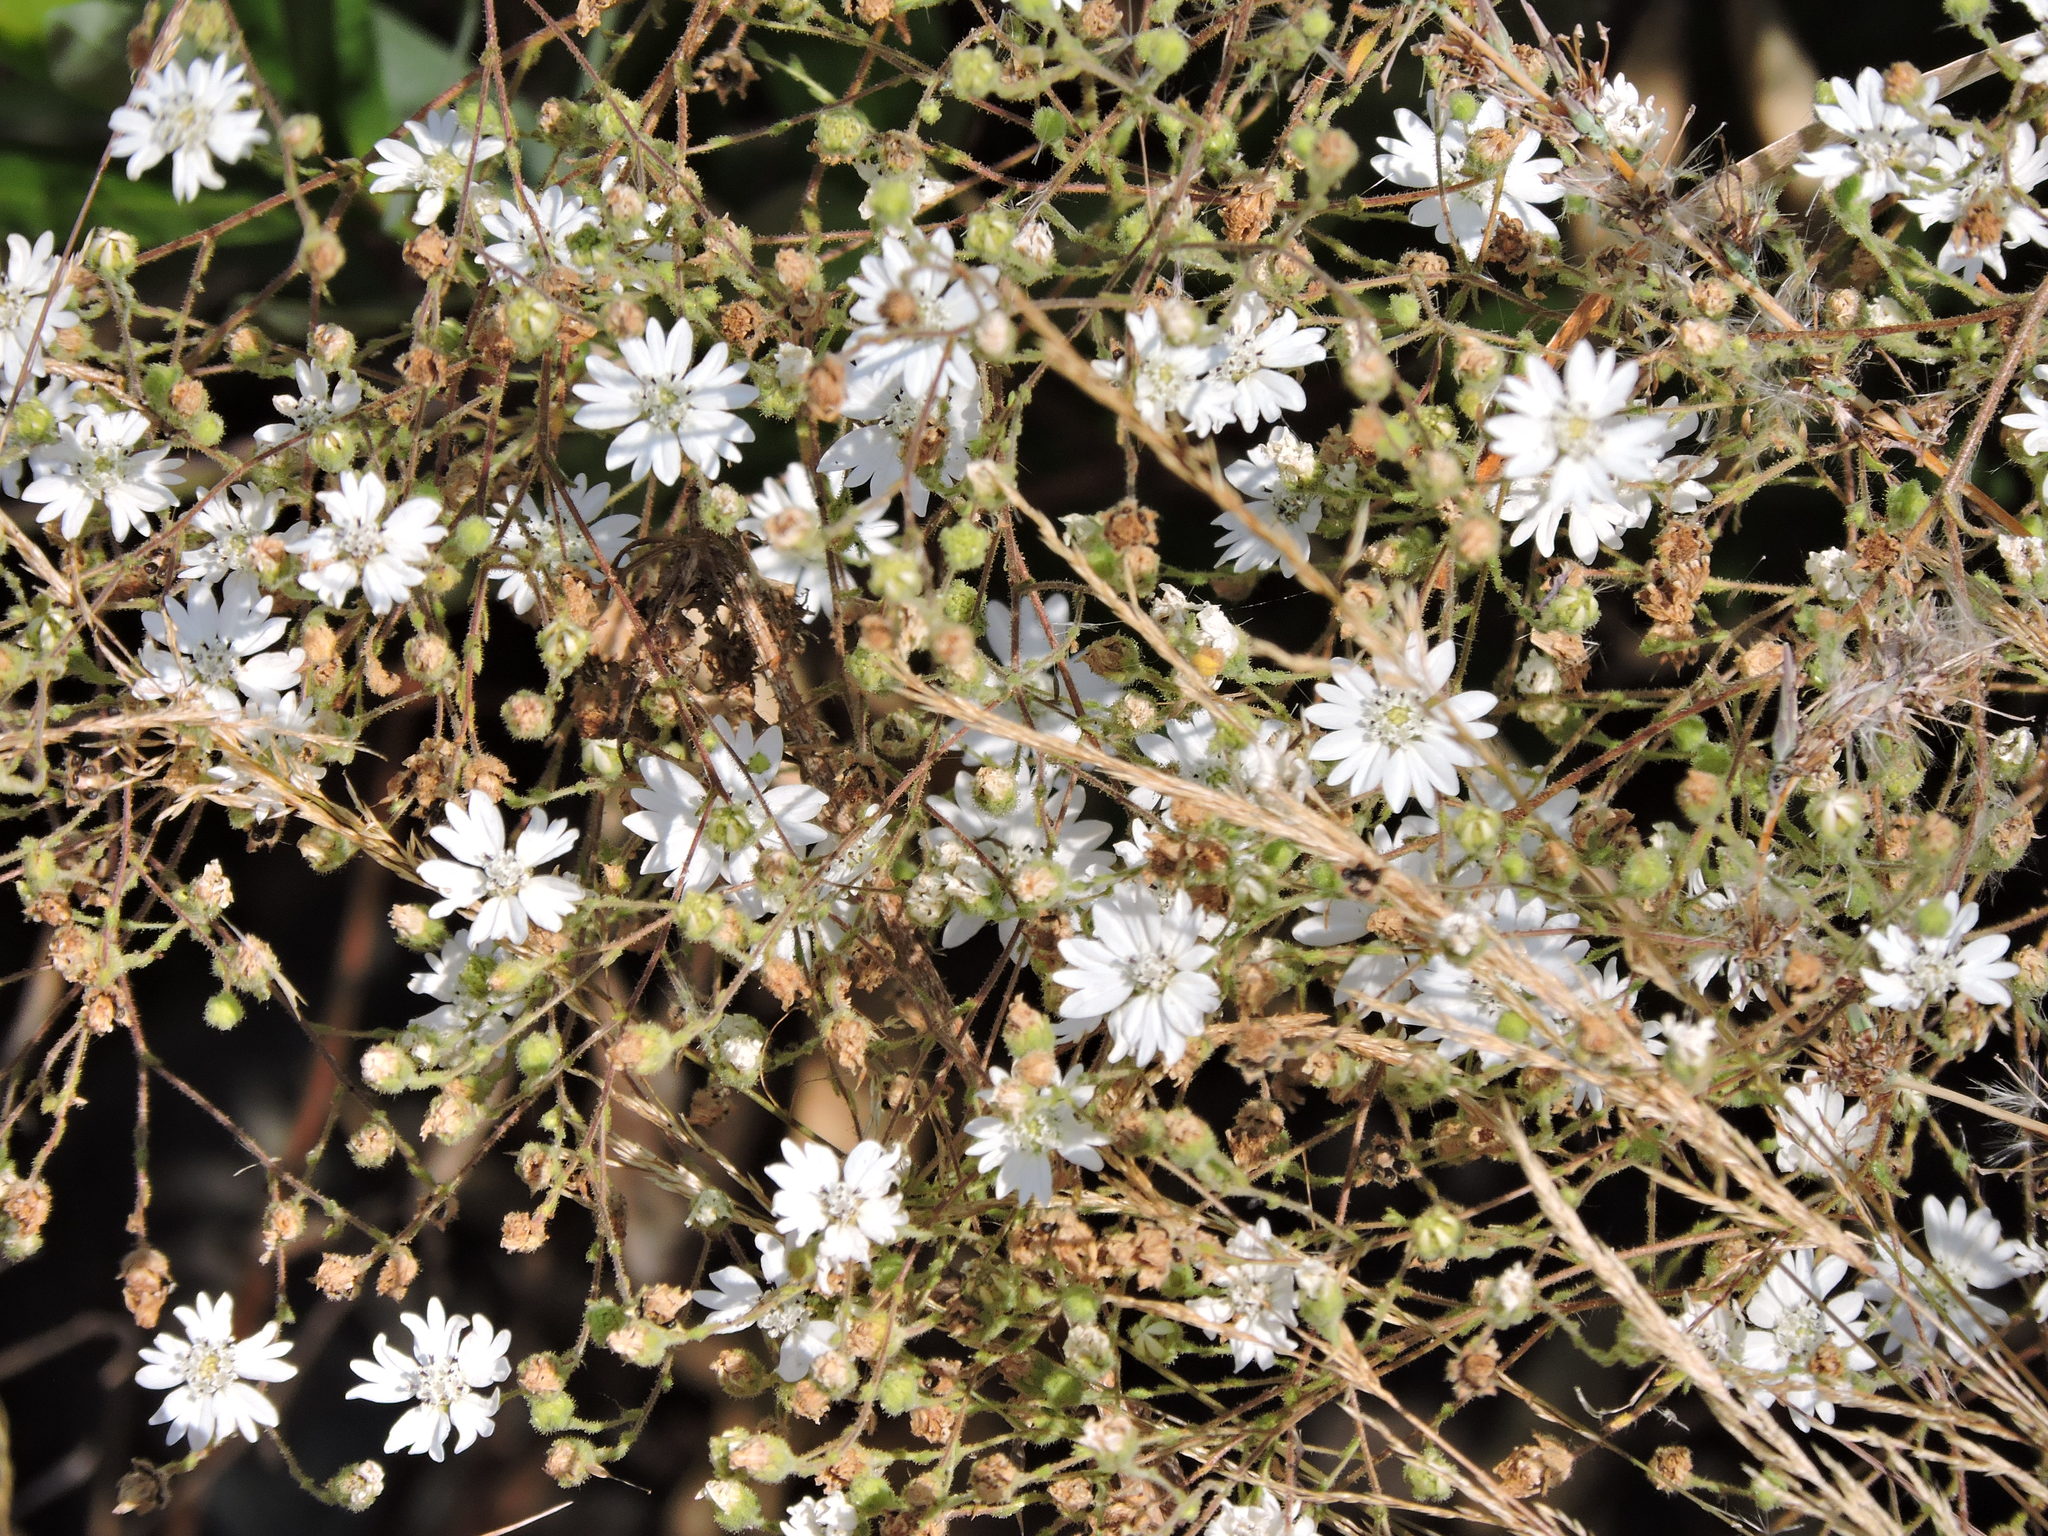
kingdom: Plantae
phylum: Tracheophyta
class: Magnoliopsida
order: Asterales
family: Asteraceae
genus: Hemizonia
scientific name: Hemizonia congesta
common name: Hayfield tarweed
